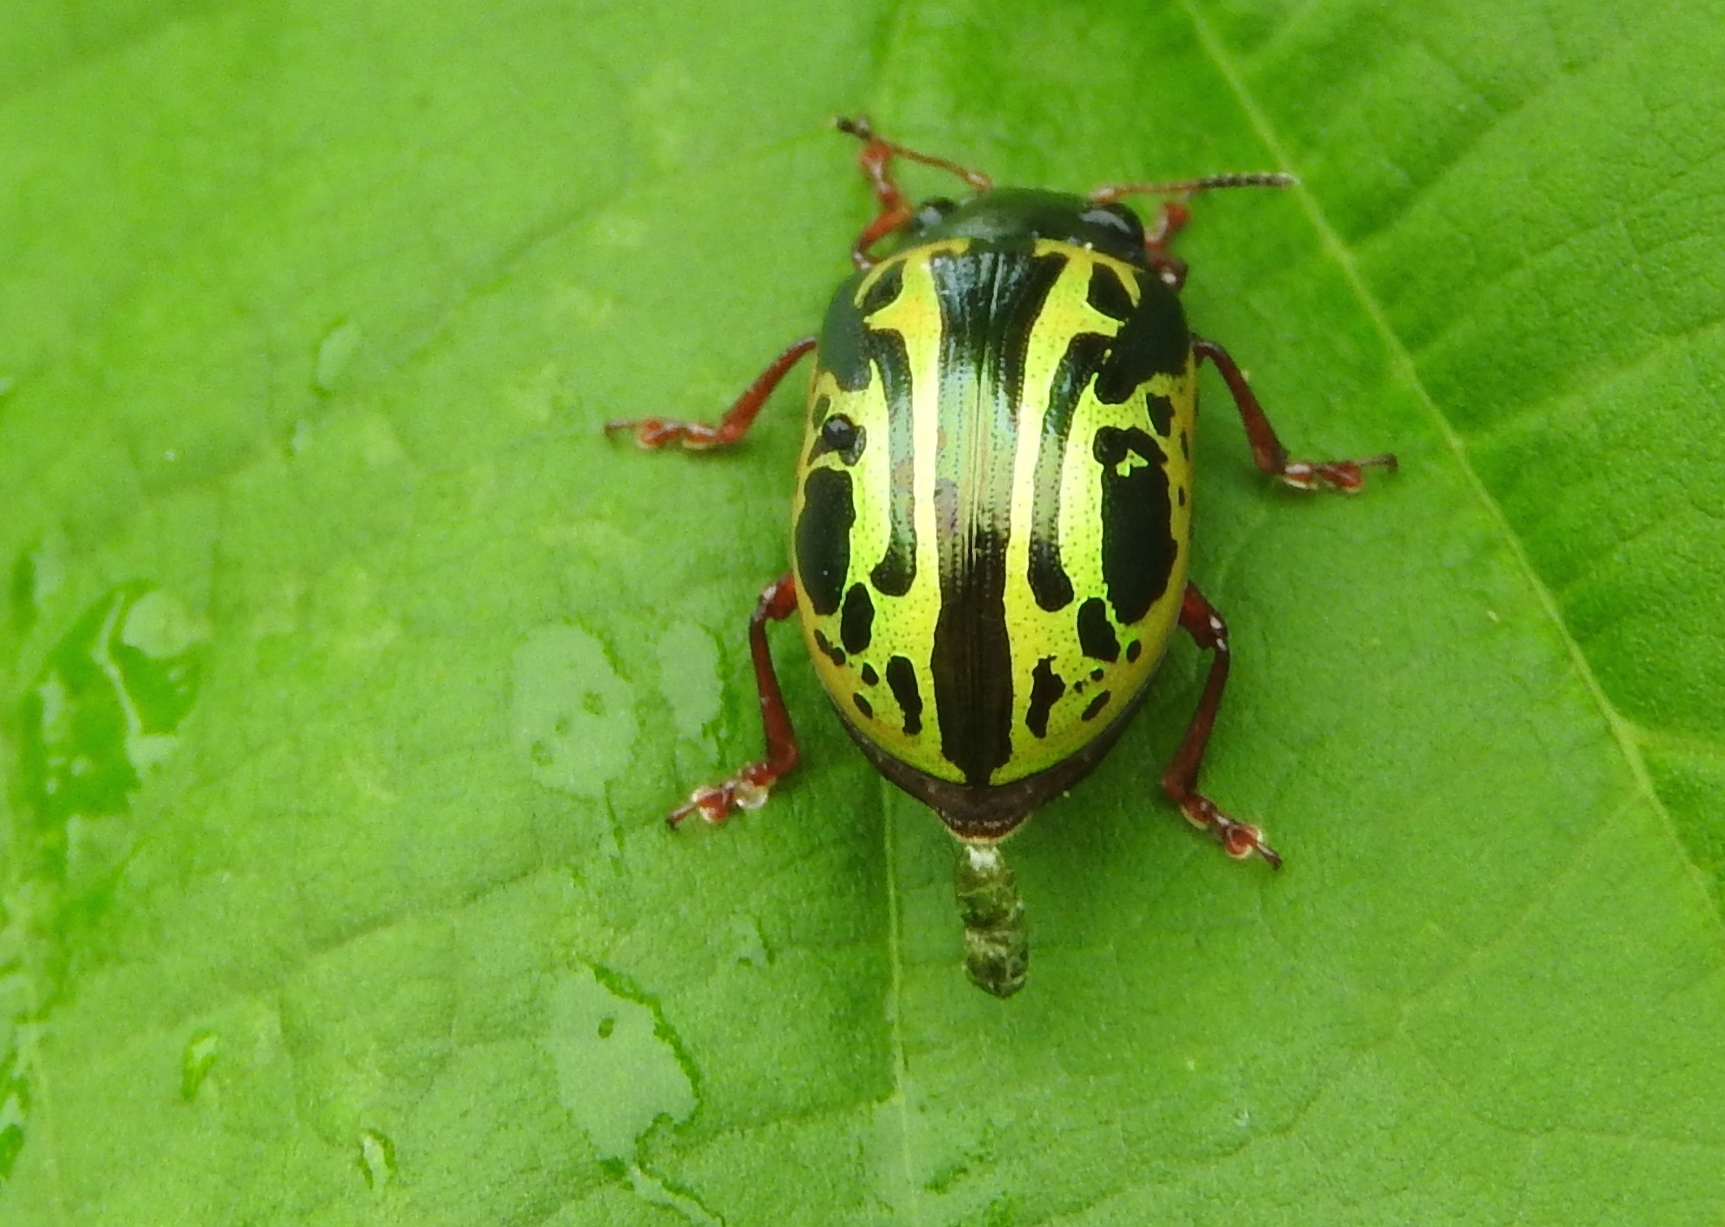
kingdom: Animalia
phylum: Arthropoda
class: Insecta
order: Coleoptera
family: Chrysomelidae
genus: Calligrapha
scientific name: Calligrapha discrepans
